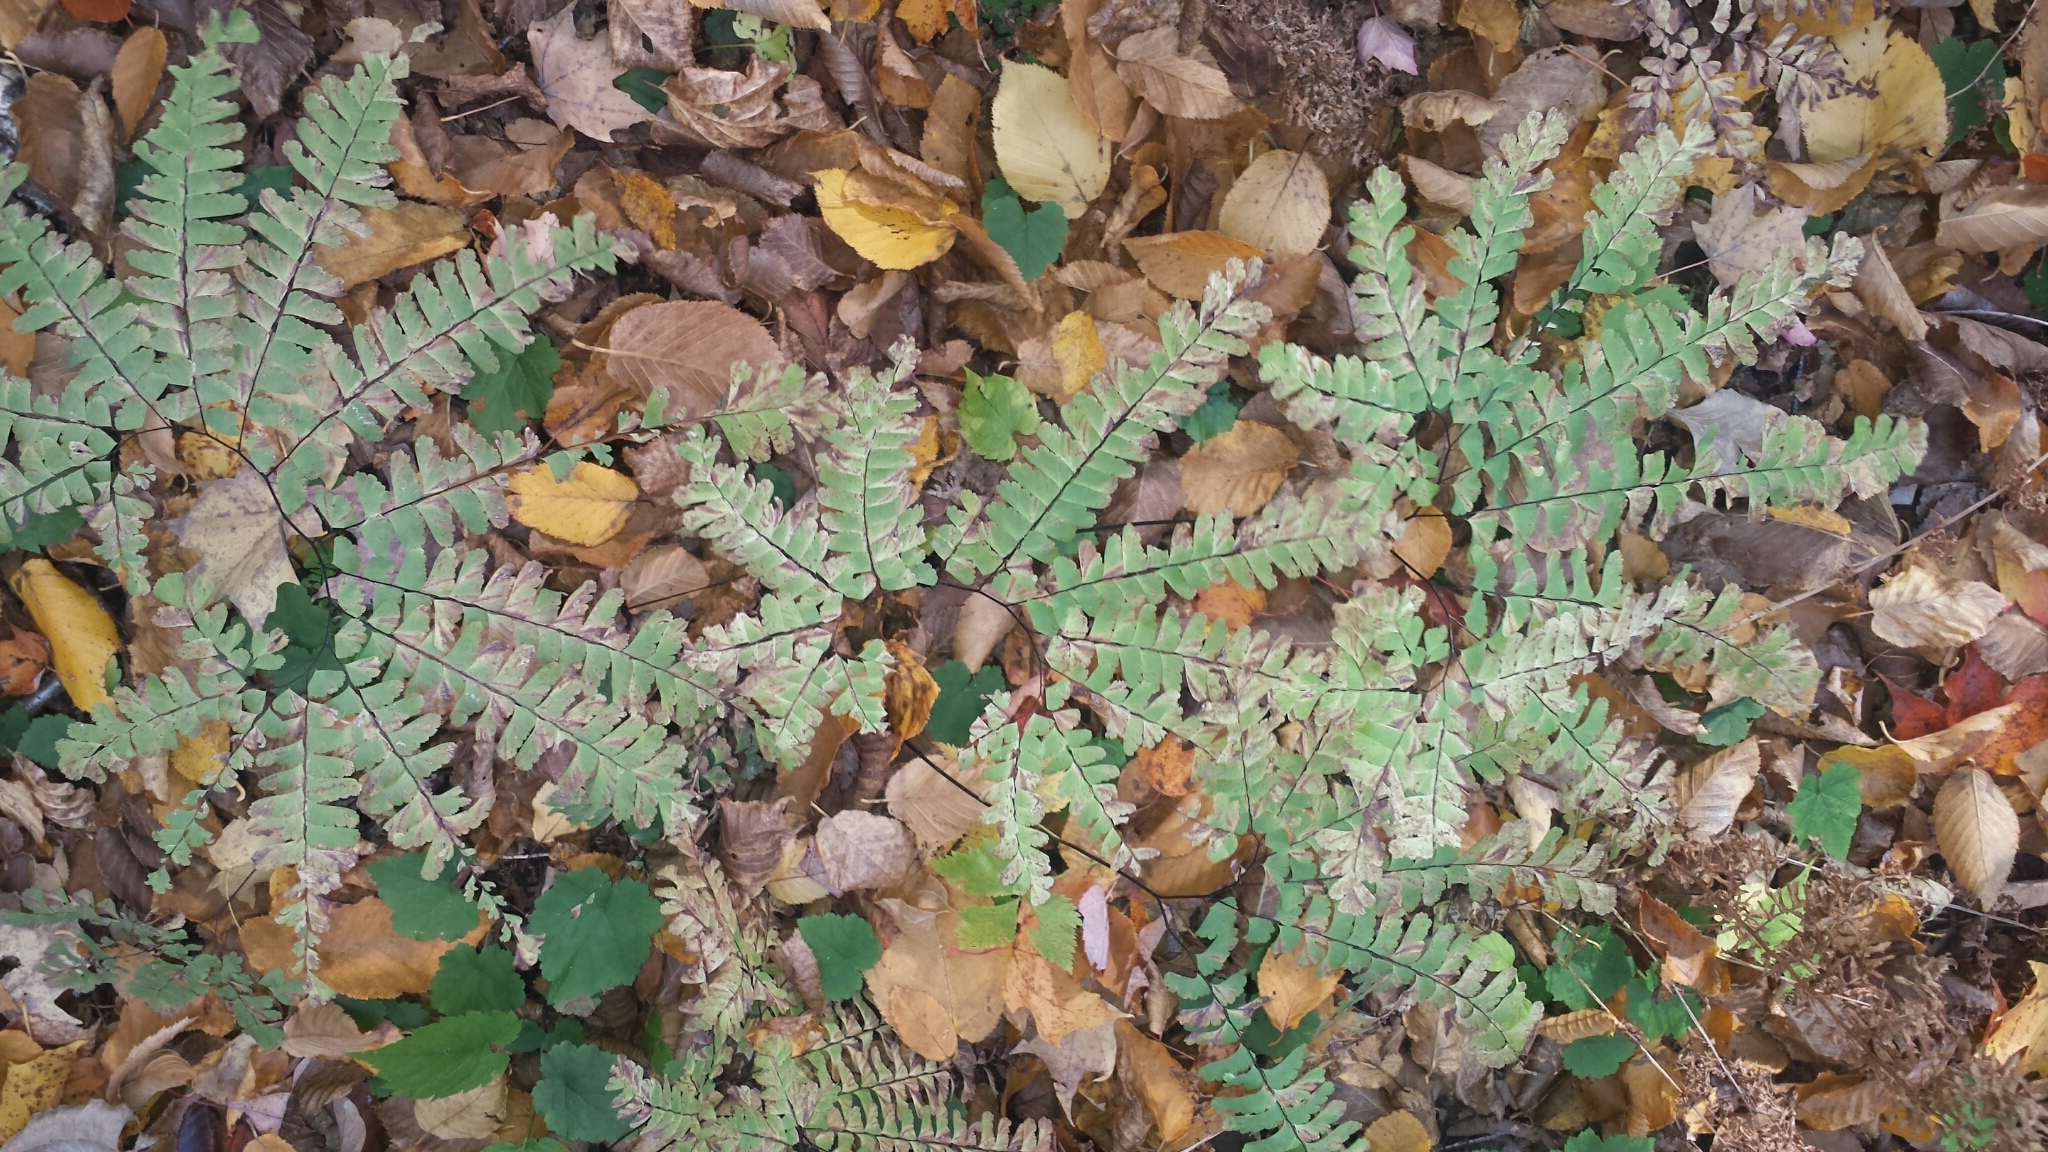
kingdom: Plantae
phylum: Tracheophyta
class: Polypodiopsida
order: Polypodiales
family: Pteridaceae
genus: Adiantum
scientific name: Adiantum pedatum
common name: Five-finger fern
